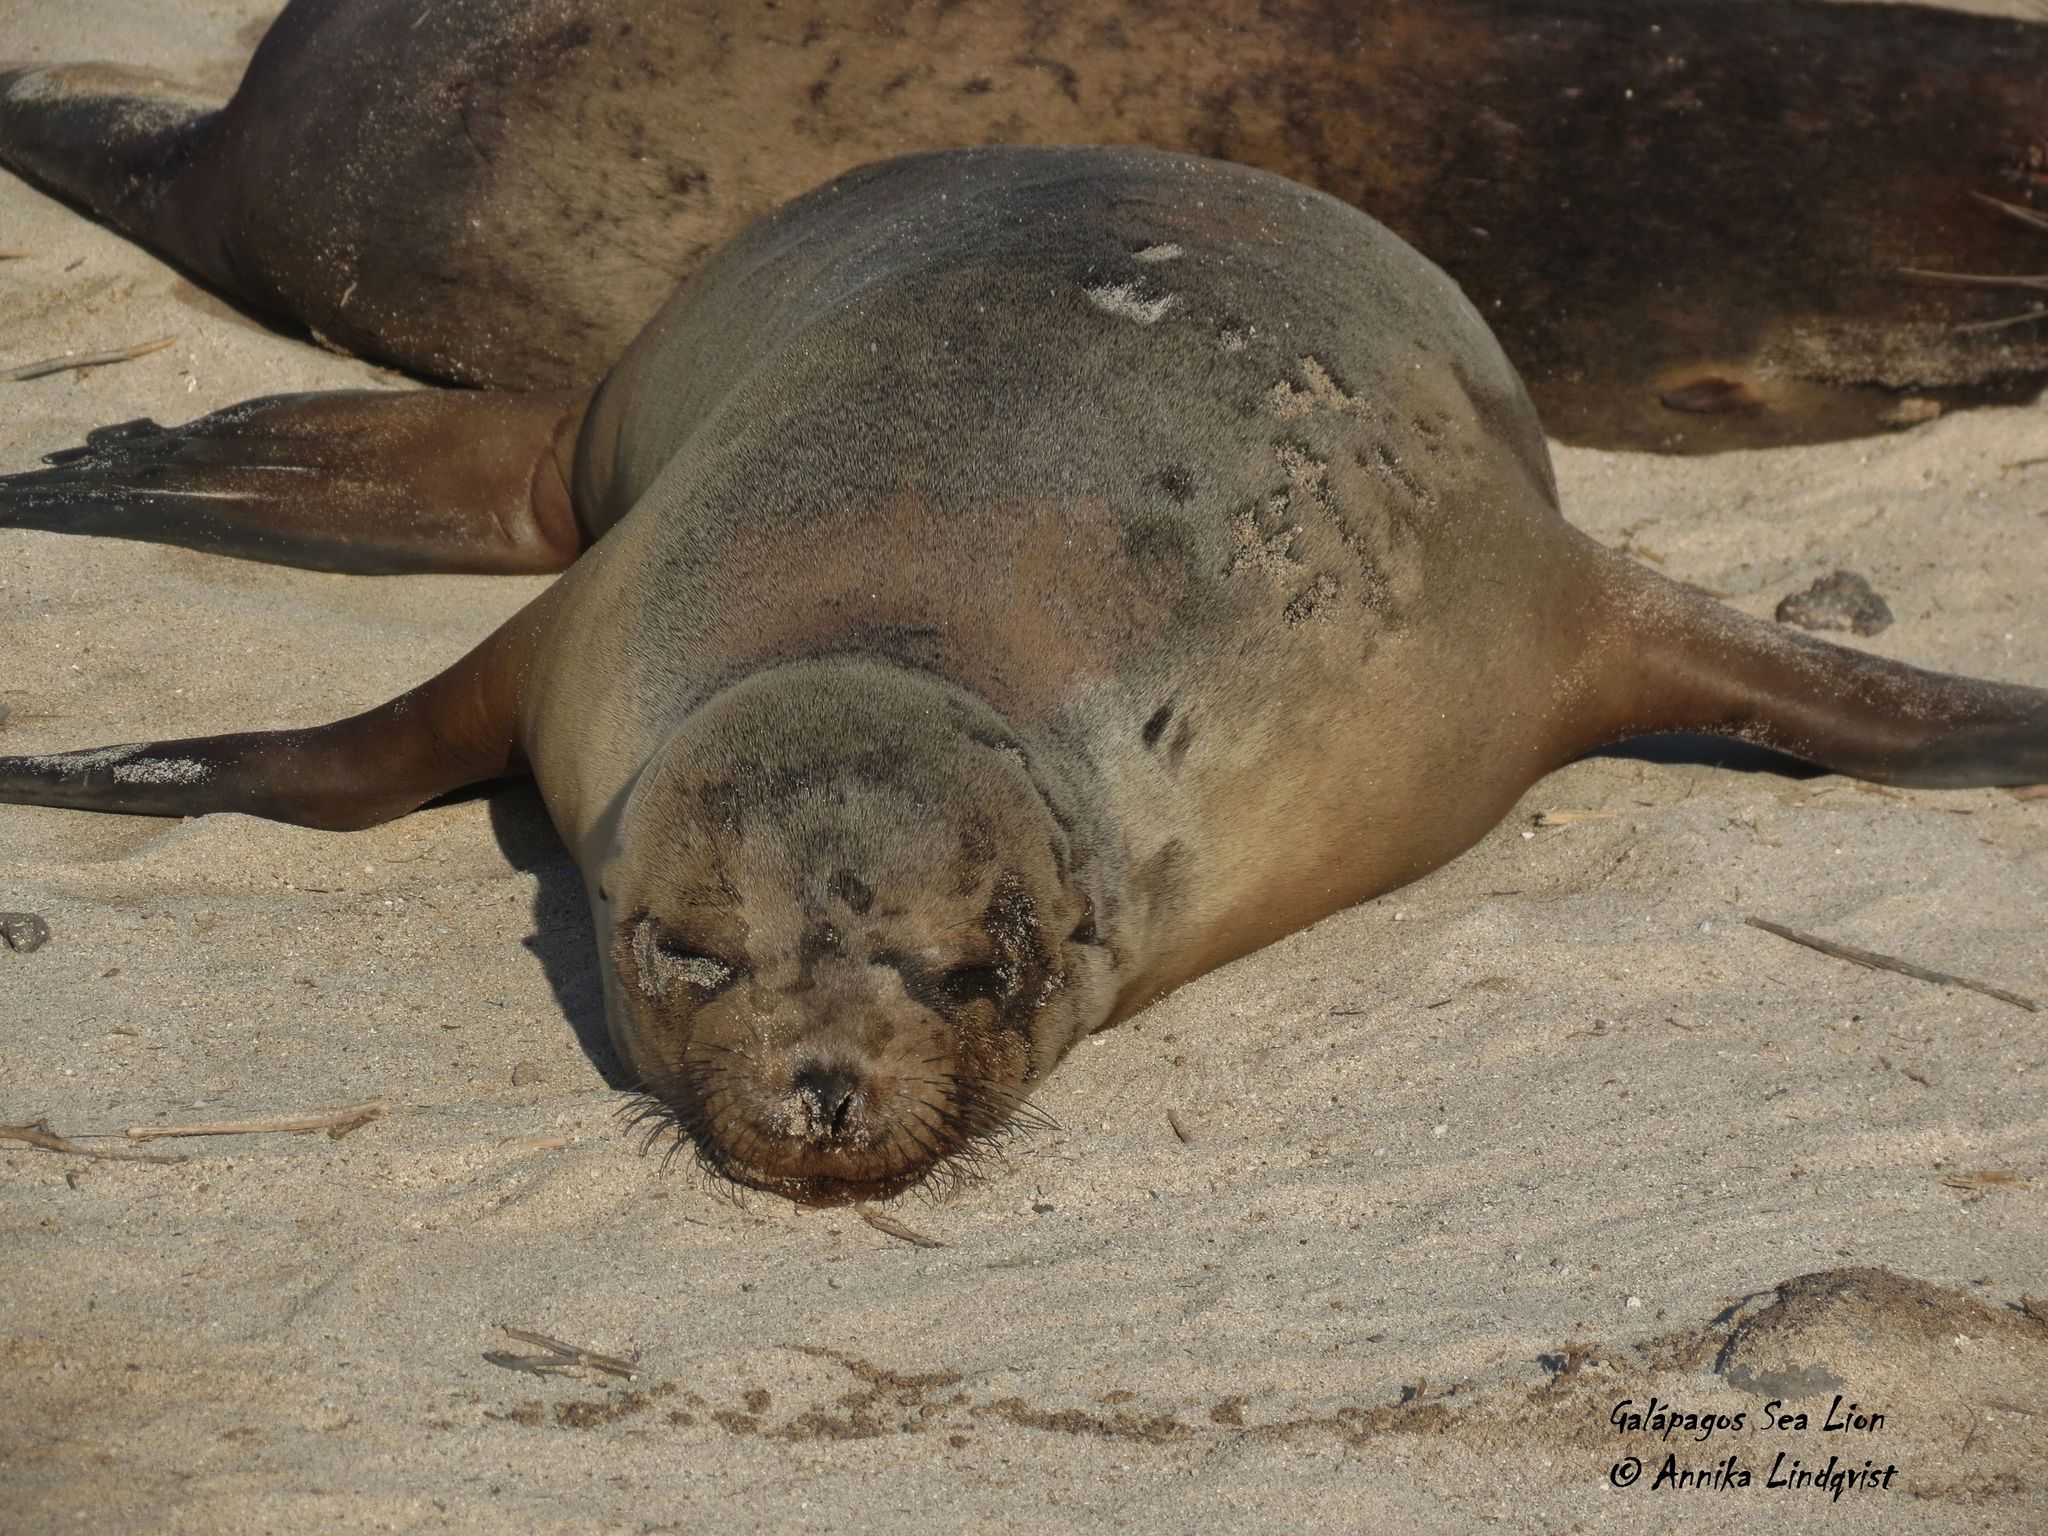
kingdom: Animalia
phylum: Chordata
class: Mammalia
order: Carnivora
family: Otariidae
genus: Zalophus
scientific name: Zalophus wollebaeki
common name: Galapagos sea lion
